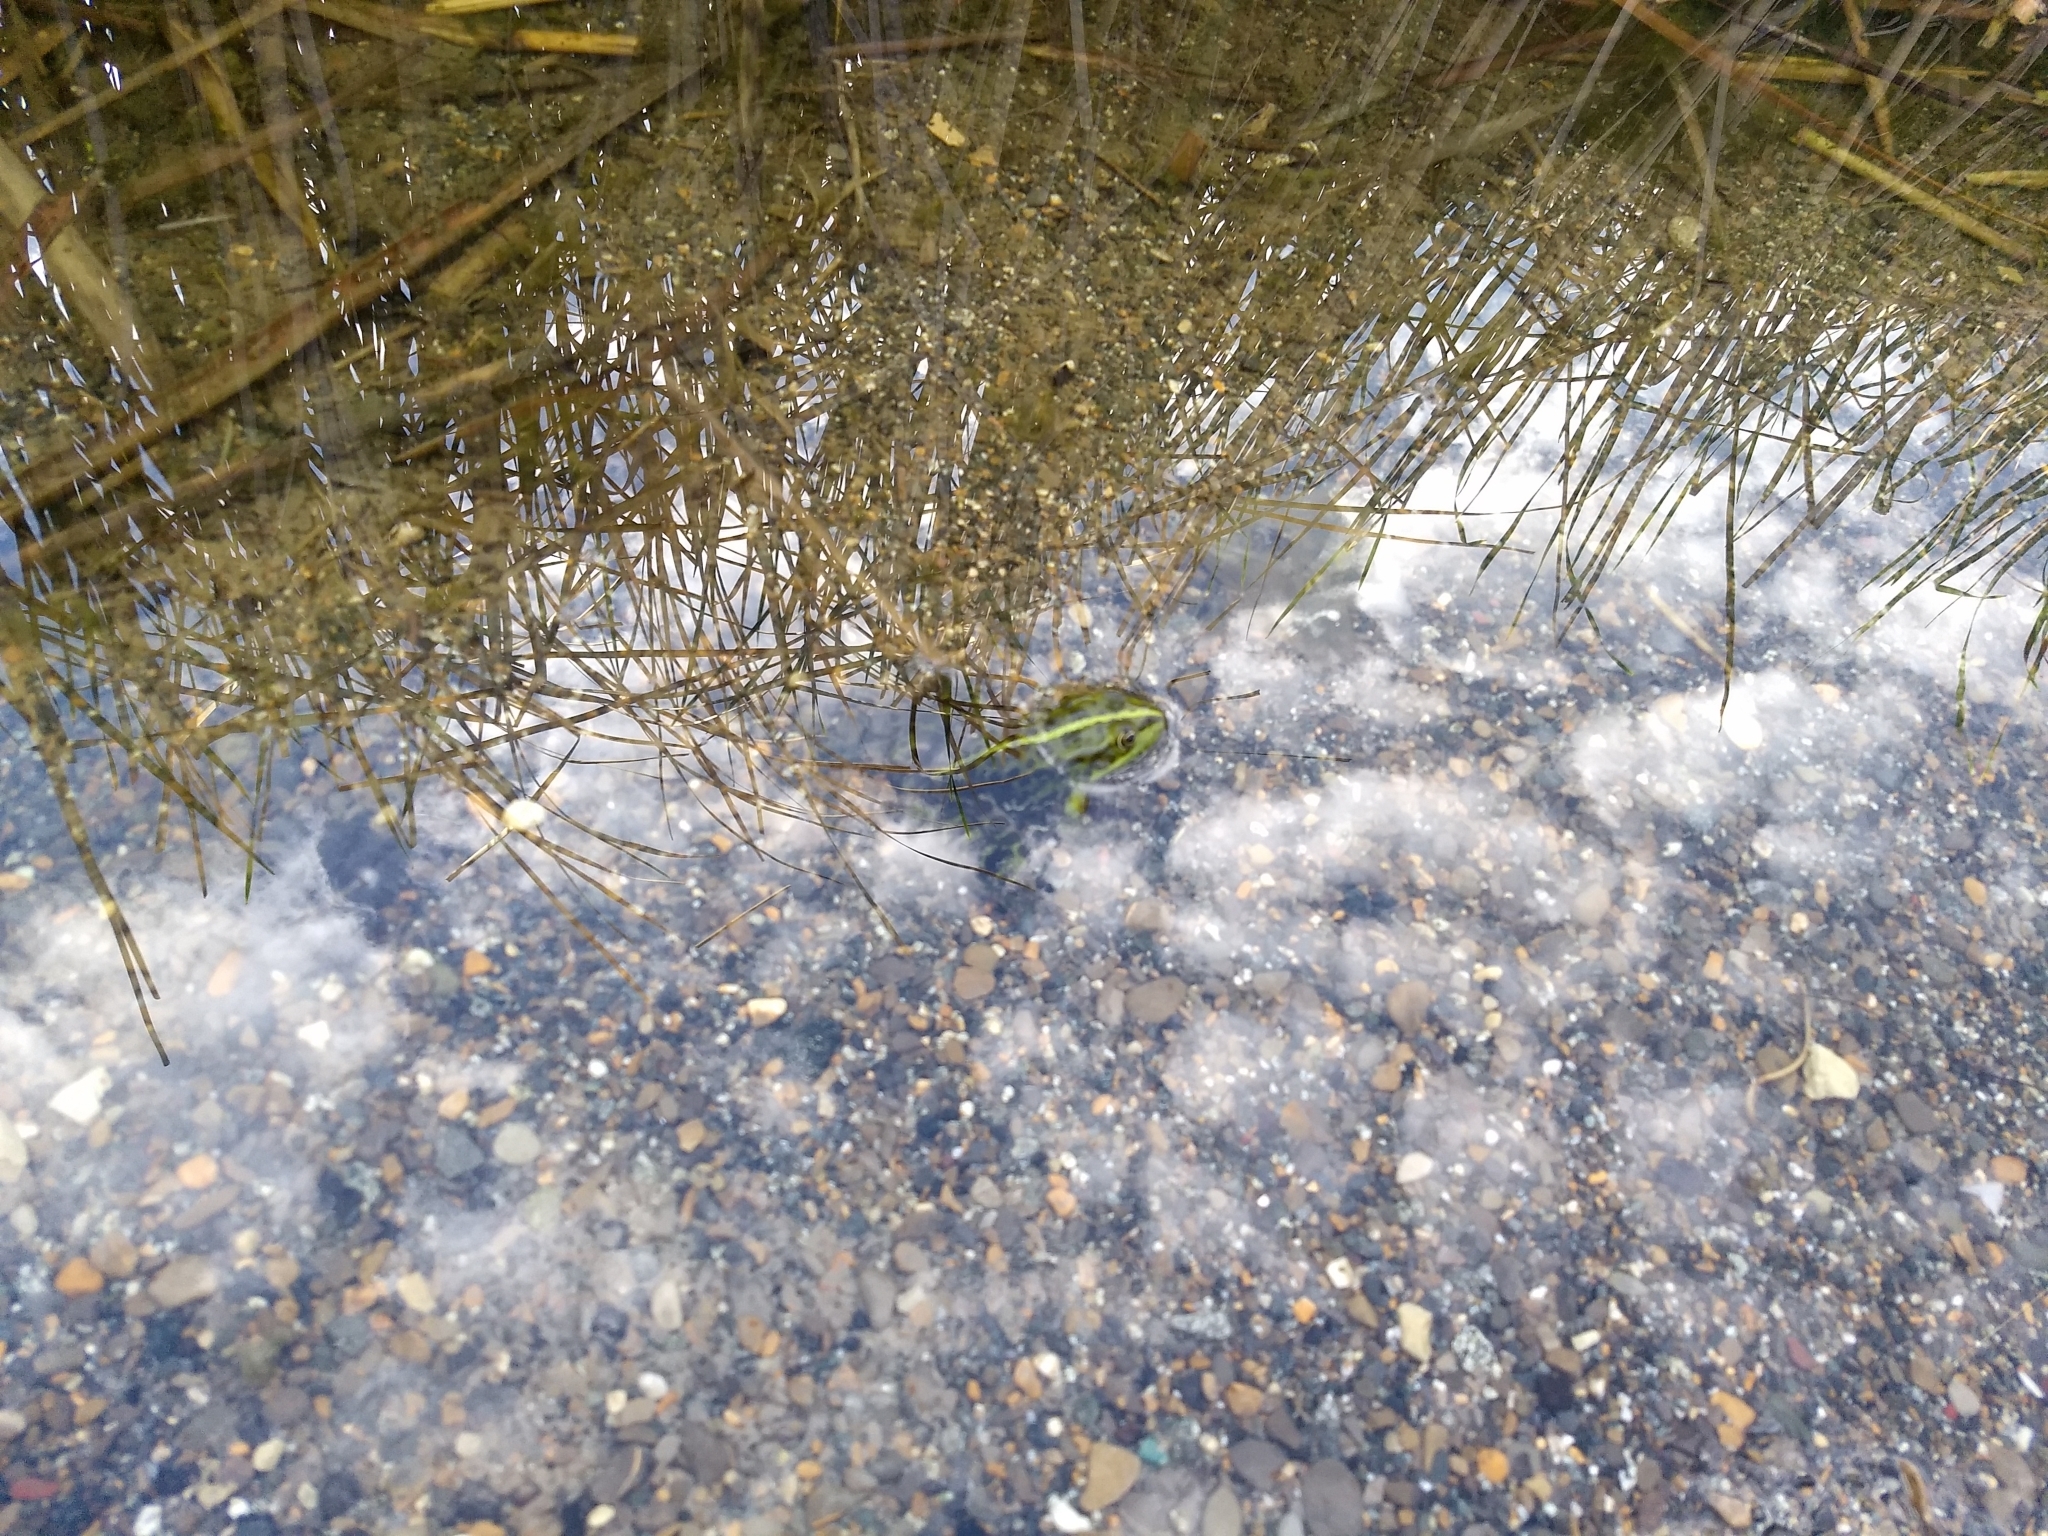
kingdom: Animalia
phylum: Chordata
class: Amphibia
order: Anura
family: Ranidae
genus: Pelophylax
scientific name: Pelophylax ridibundus
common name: Marsh frog
